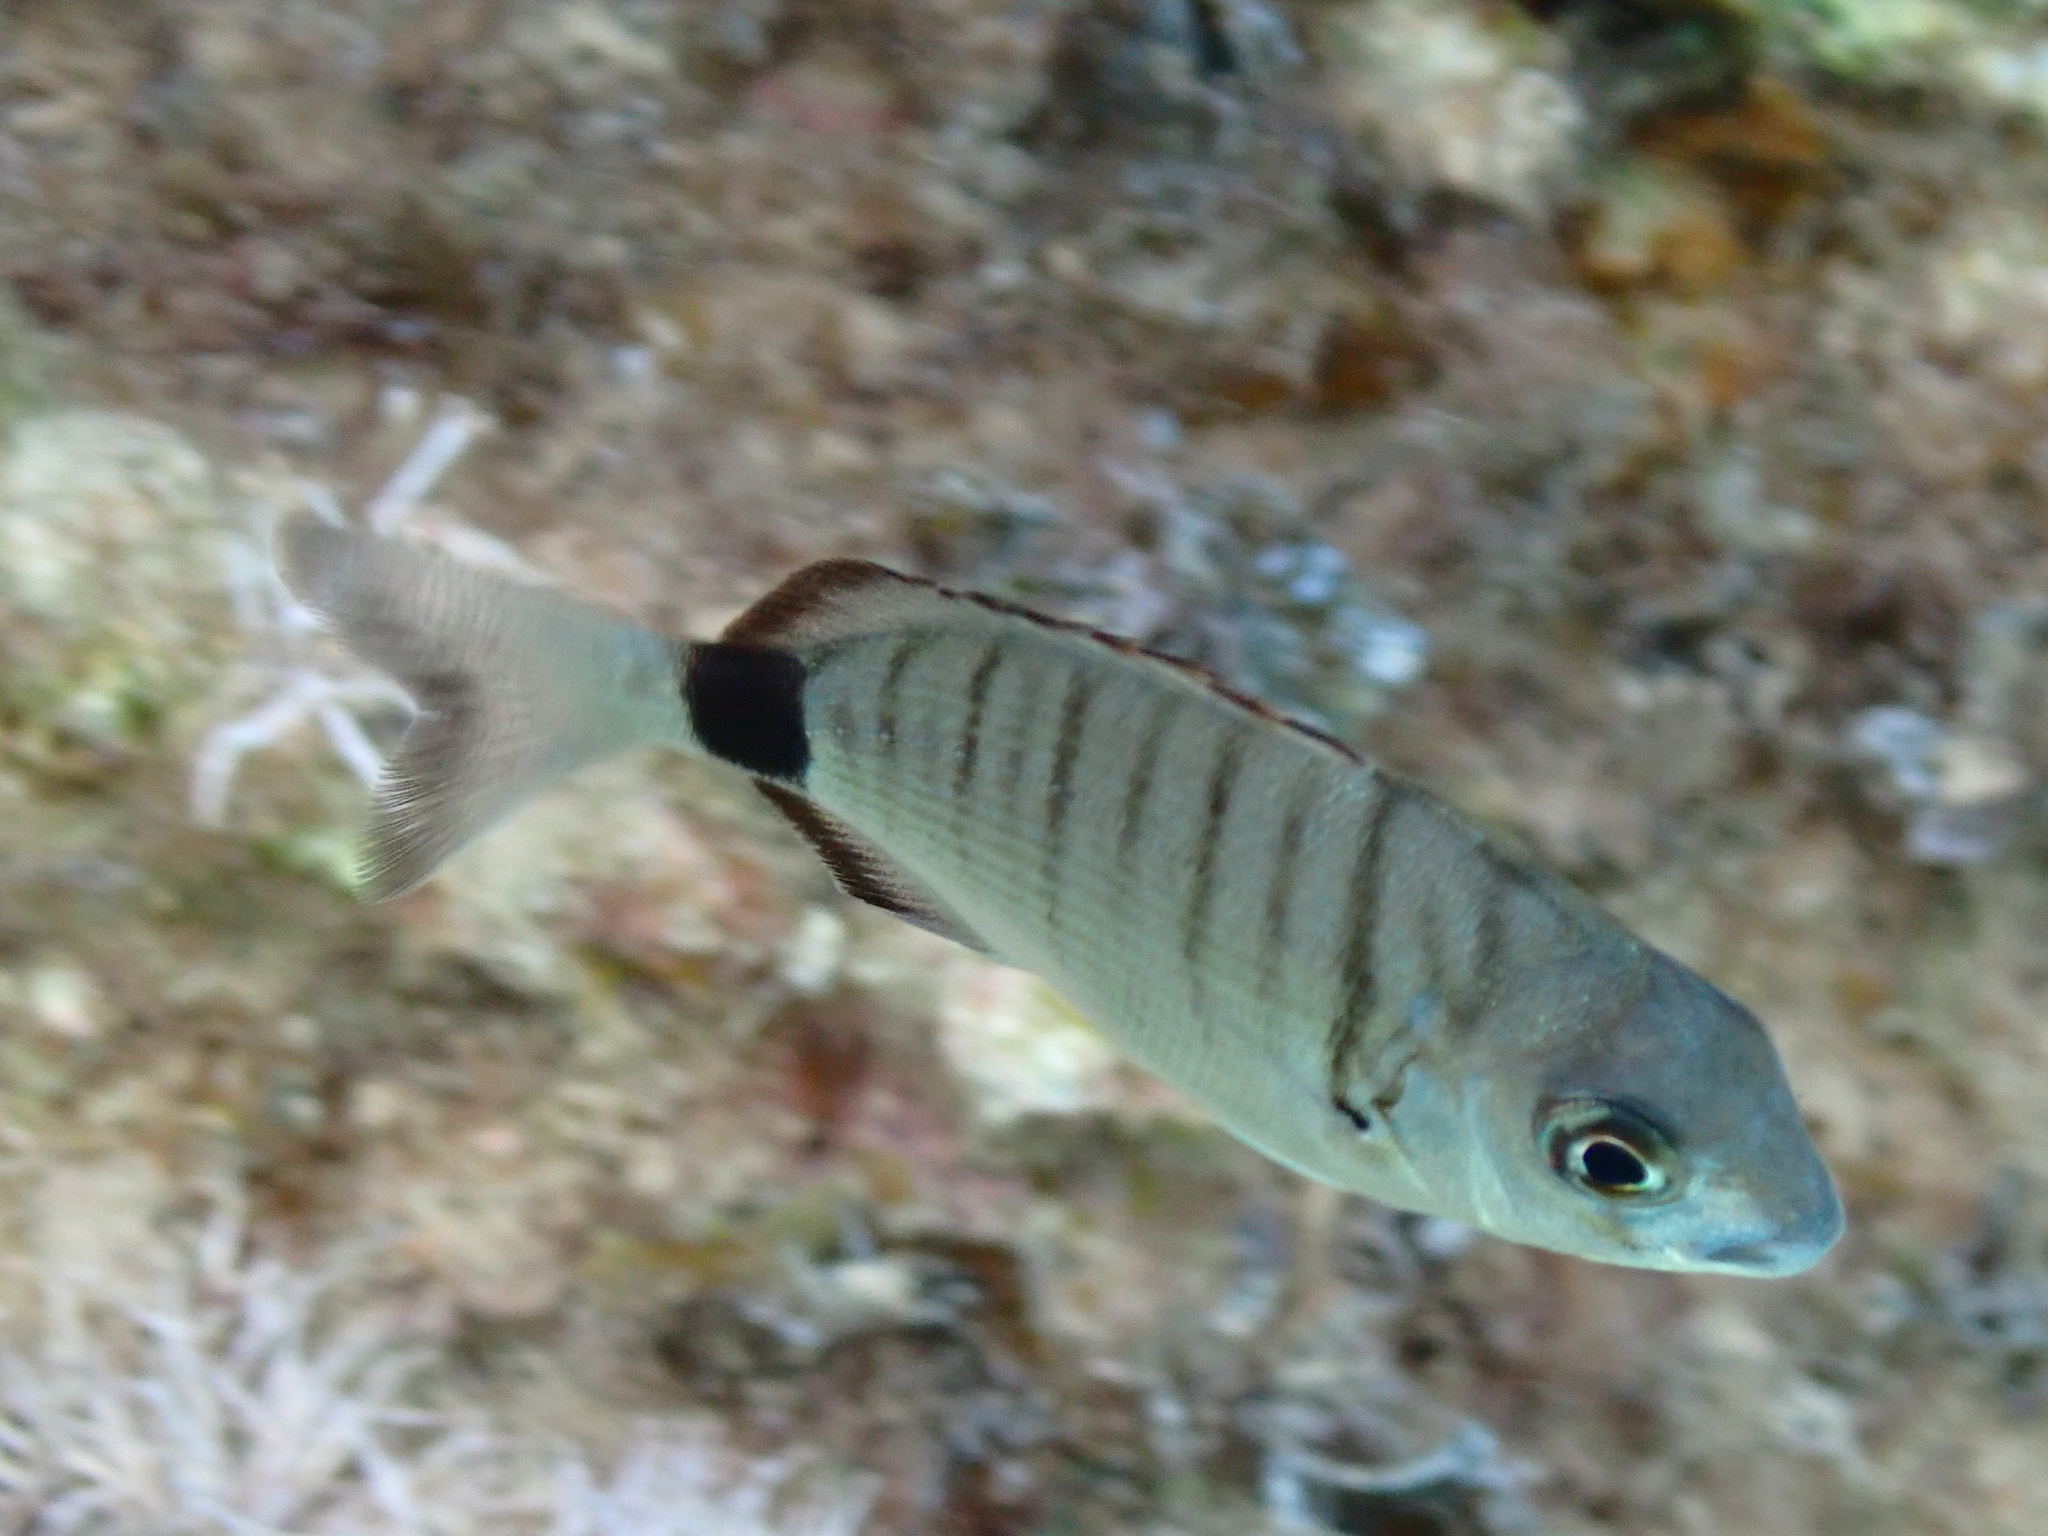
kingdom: Animalia
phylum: Chordata
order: Perciformes
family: Sparidae
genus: Diplodus
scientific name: Diplodus sargus
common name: White seabream
